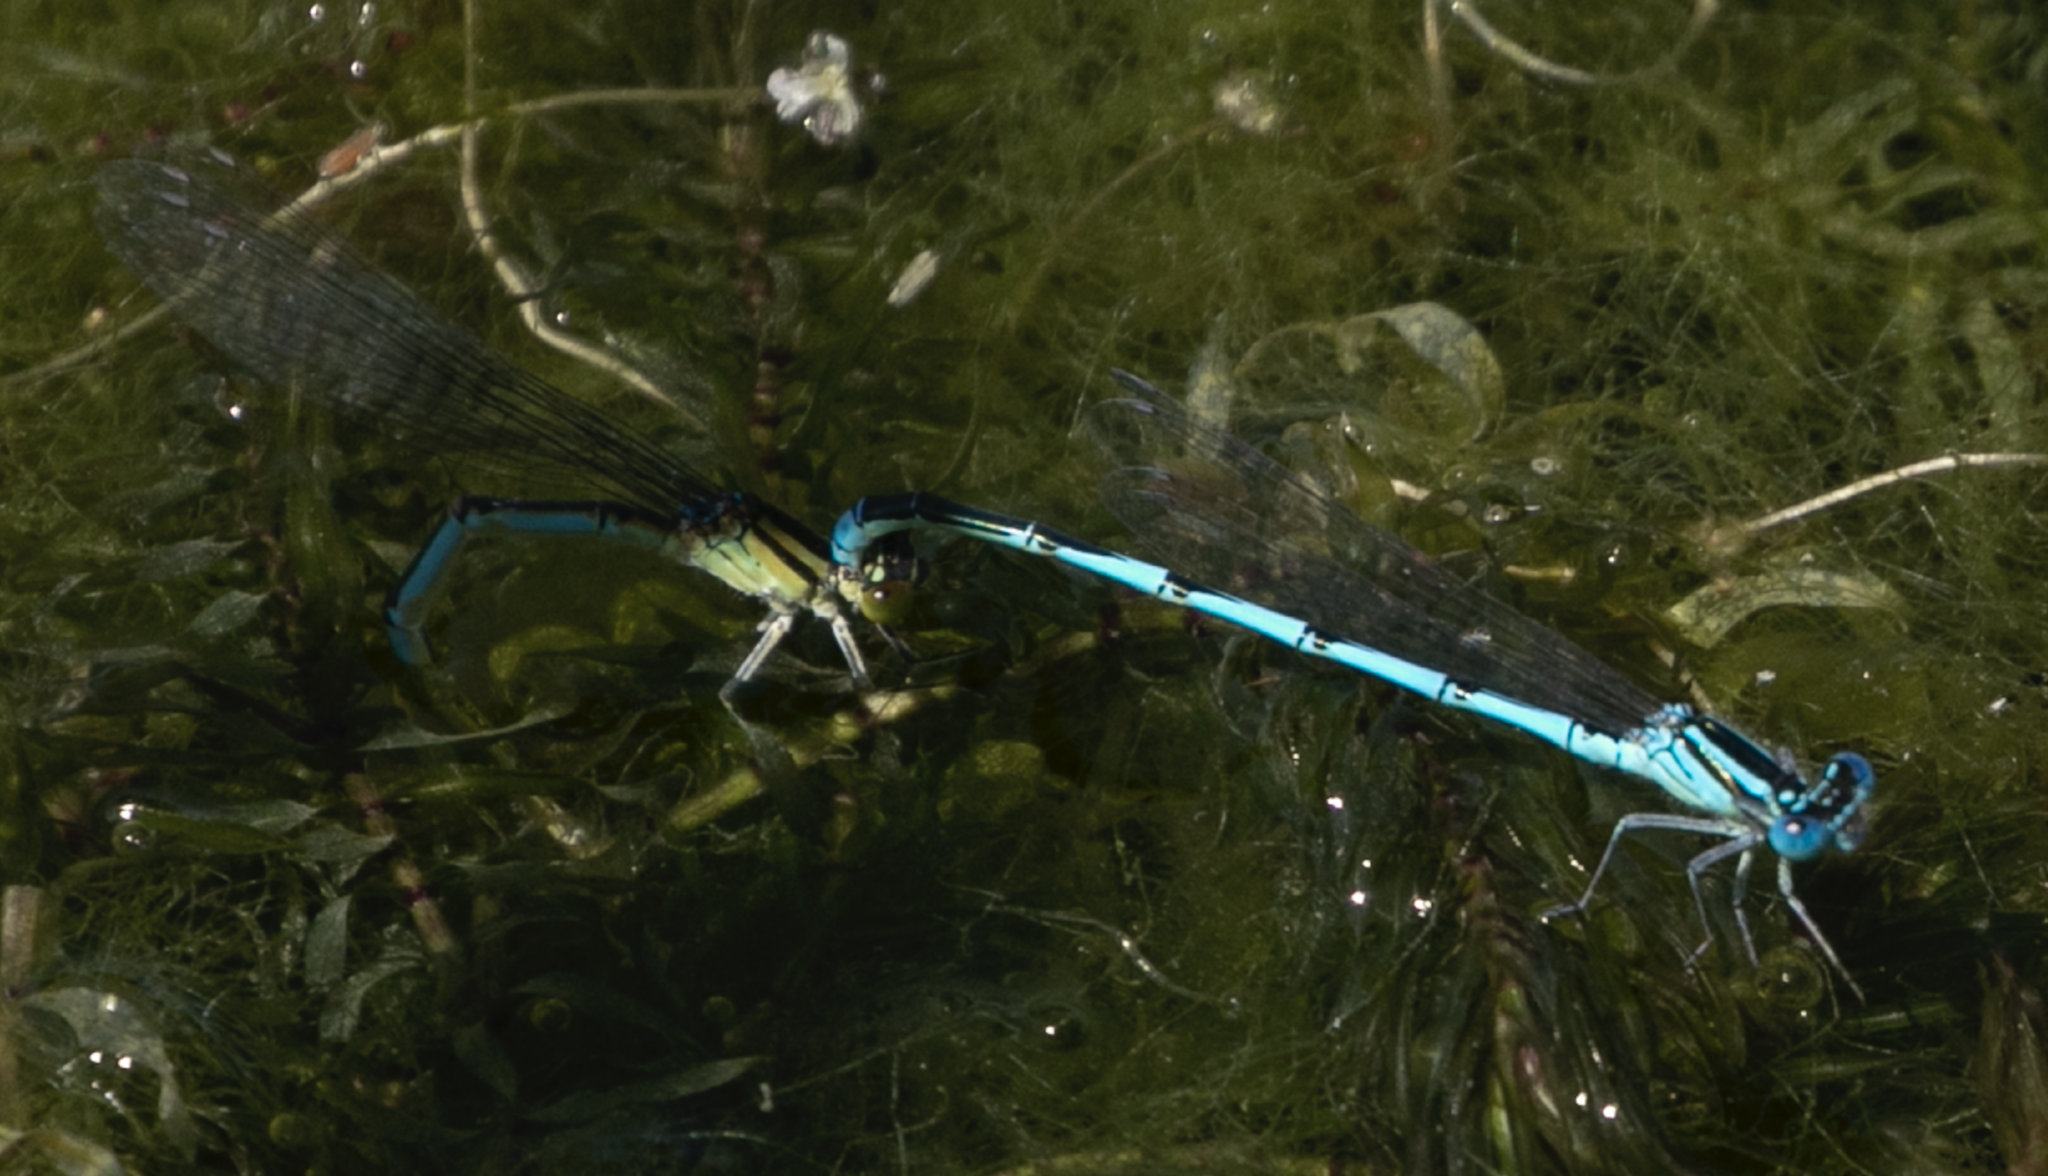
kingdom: Animalia
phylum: Arthropoda
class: Insecta
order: Odonata
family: Coenagrionidae
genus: Erythromma
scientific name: Erythromma lindenii
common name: Blue-eye
